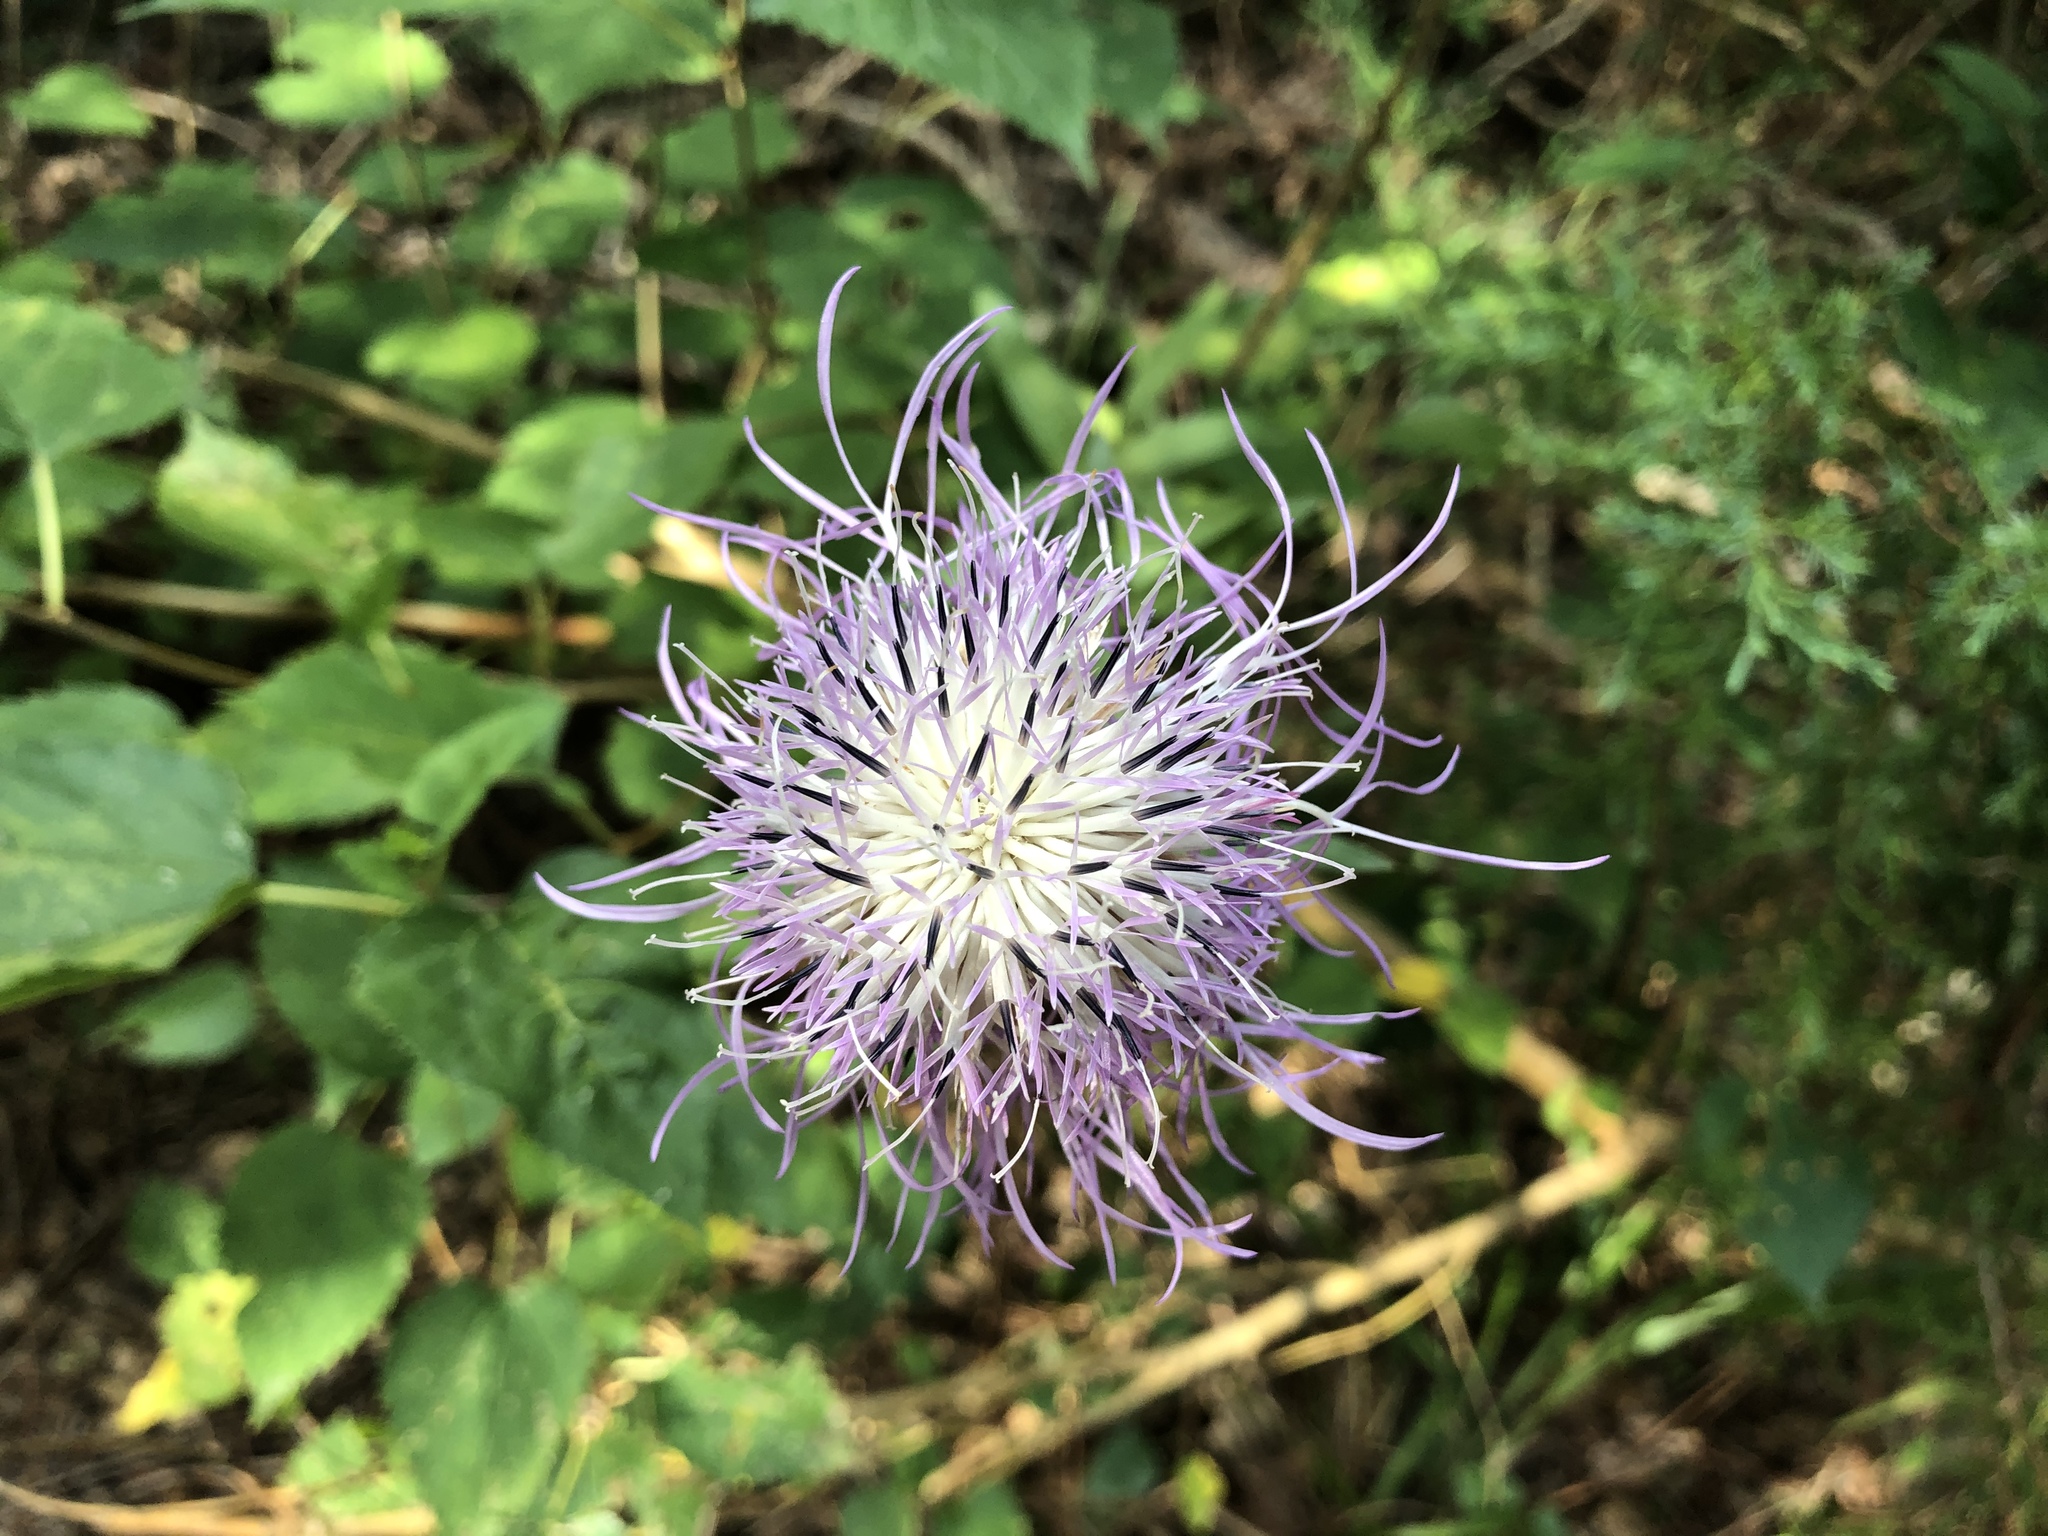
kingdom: Plantae
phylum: Tracheophyta
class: Magnoliopsida
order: Asterales
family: Asteraceae
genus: Plectocephalus
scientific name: Plectocephalus americanus
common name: American basket-flower
